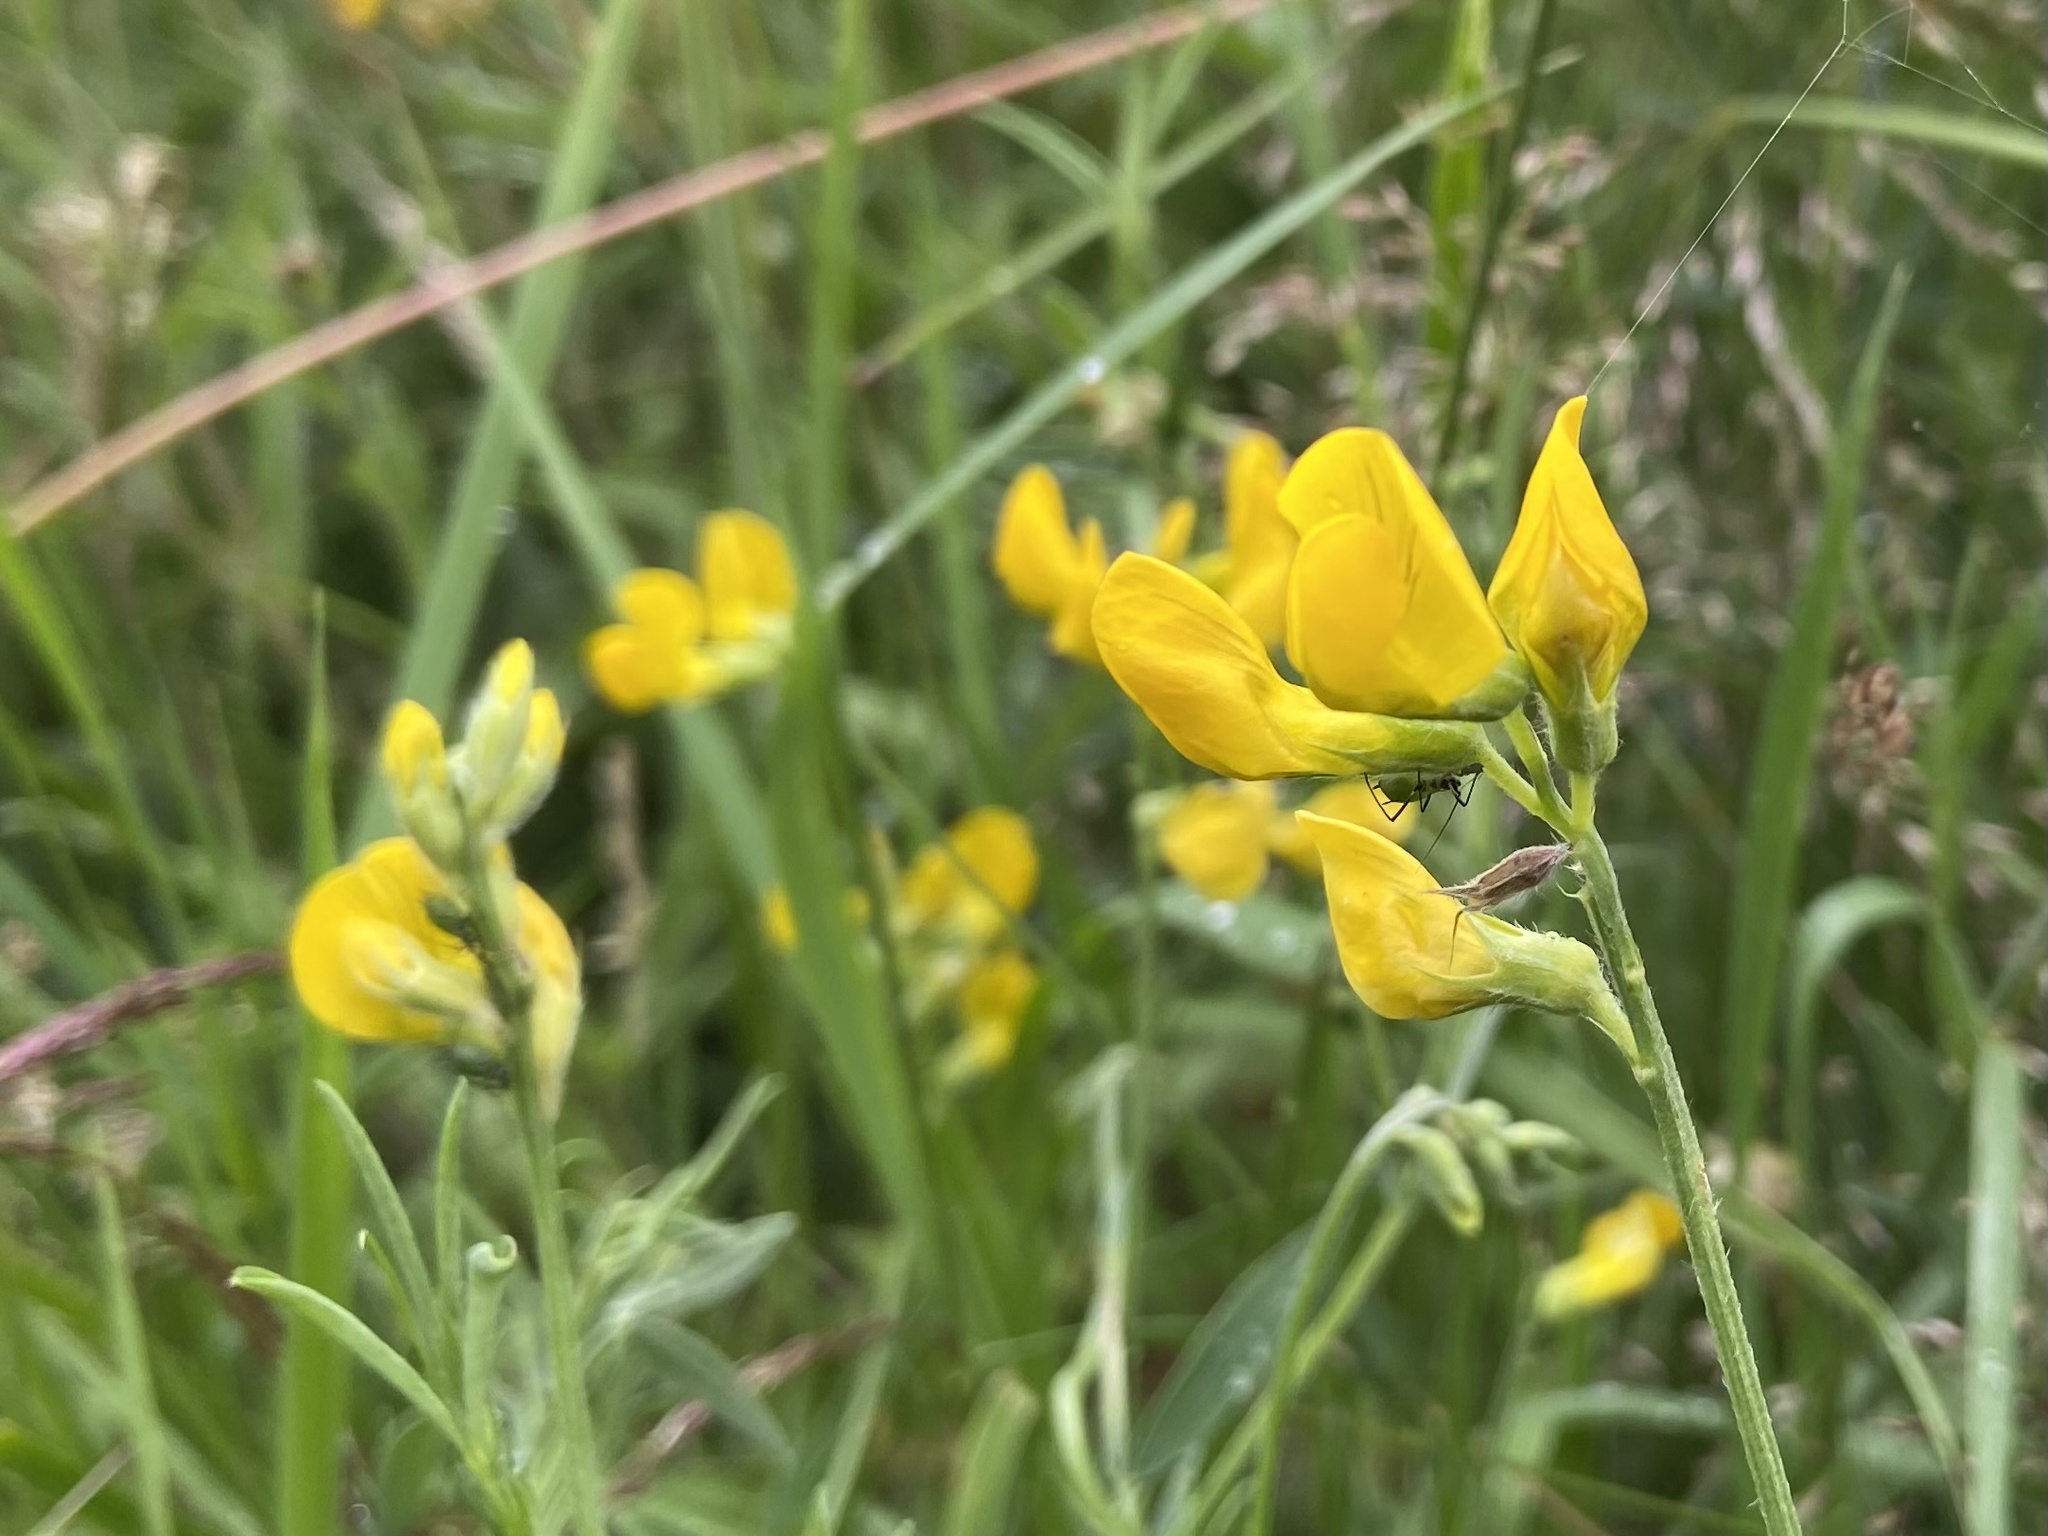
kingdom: Plantae
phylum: Tracheophyta
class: Magnoliopsida
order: Fabales
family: Fabaceae
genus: Lathyrus
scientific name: Lathyrus pratensis
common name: Meadow vetchling
